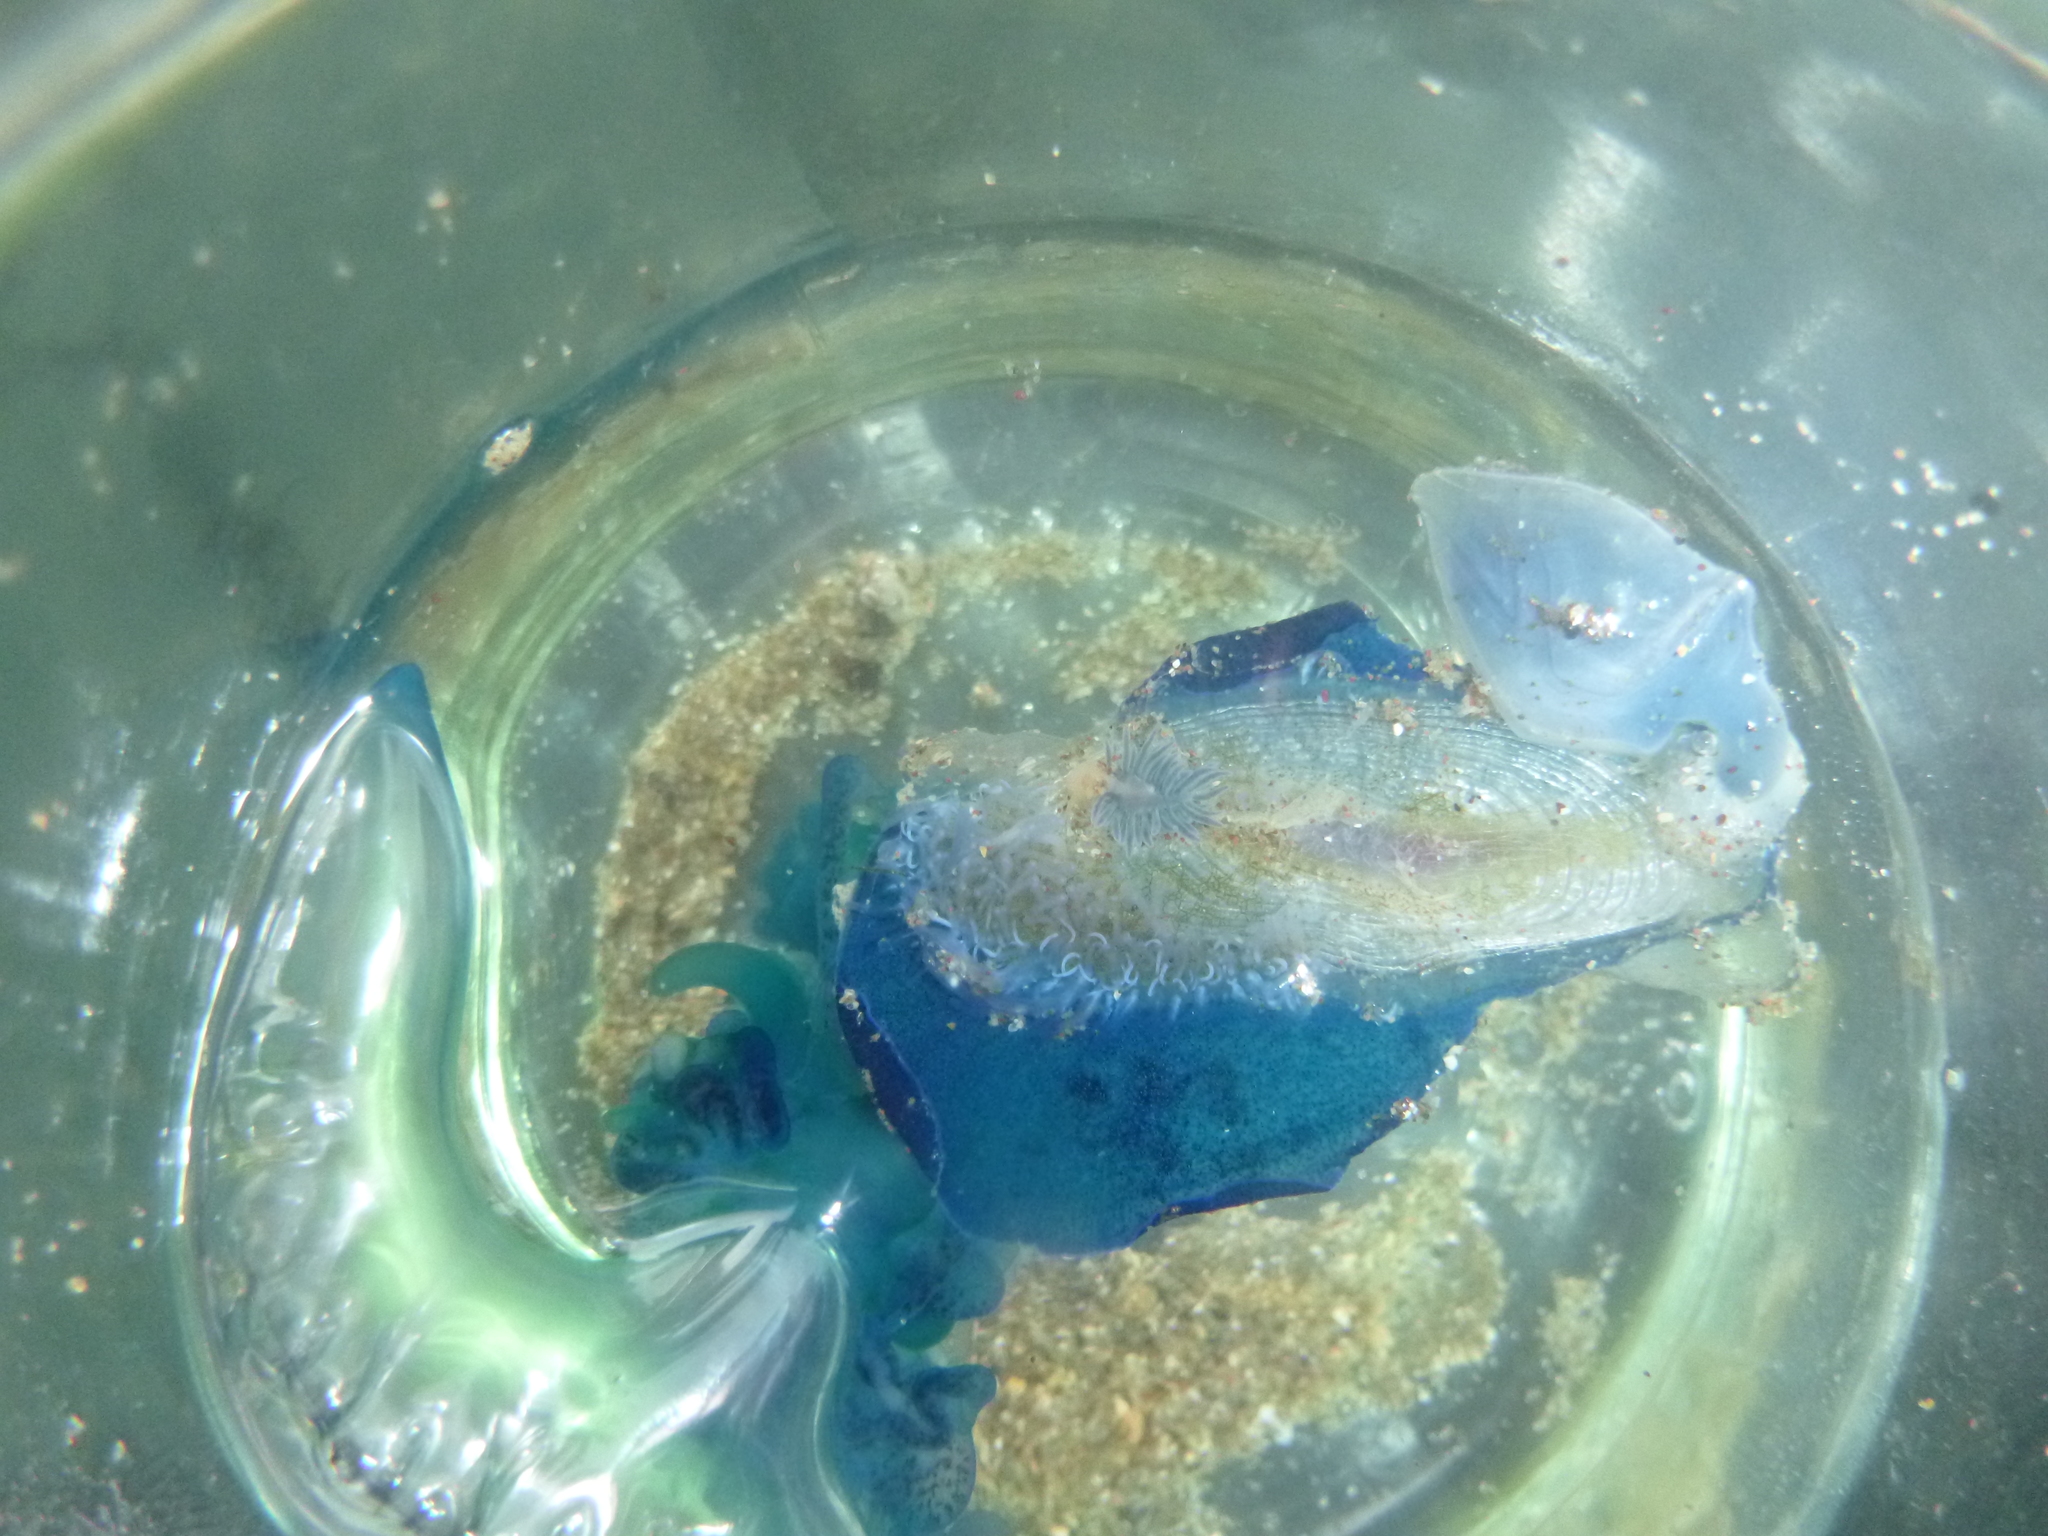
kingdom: Animalia
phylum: Arthropoda
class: Maxillopoda
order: Pedunculata
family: Lepadidae
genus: Dosima
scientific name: Dosima fascicularis
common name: Buoy barnacle
